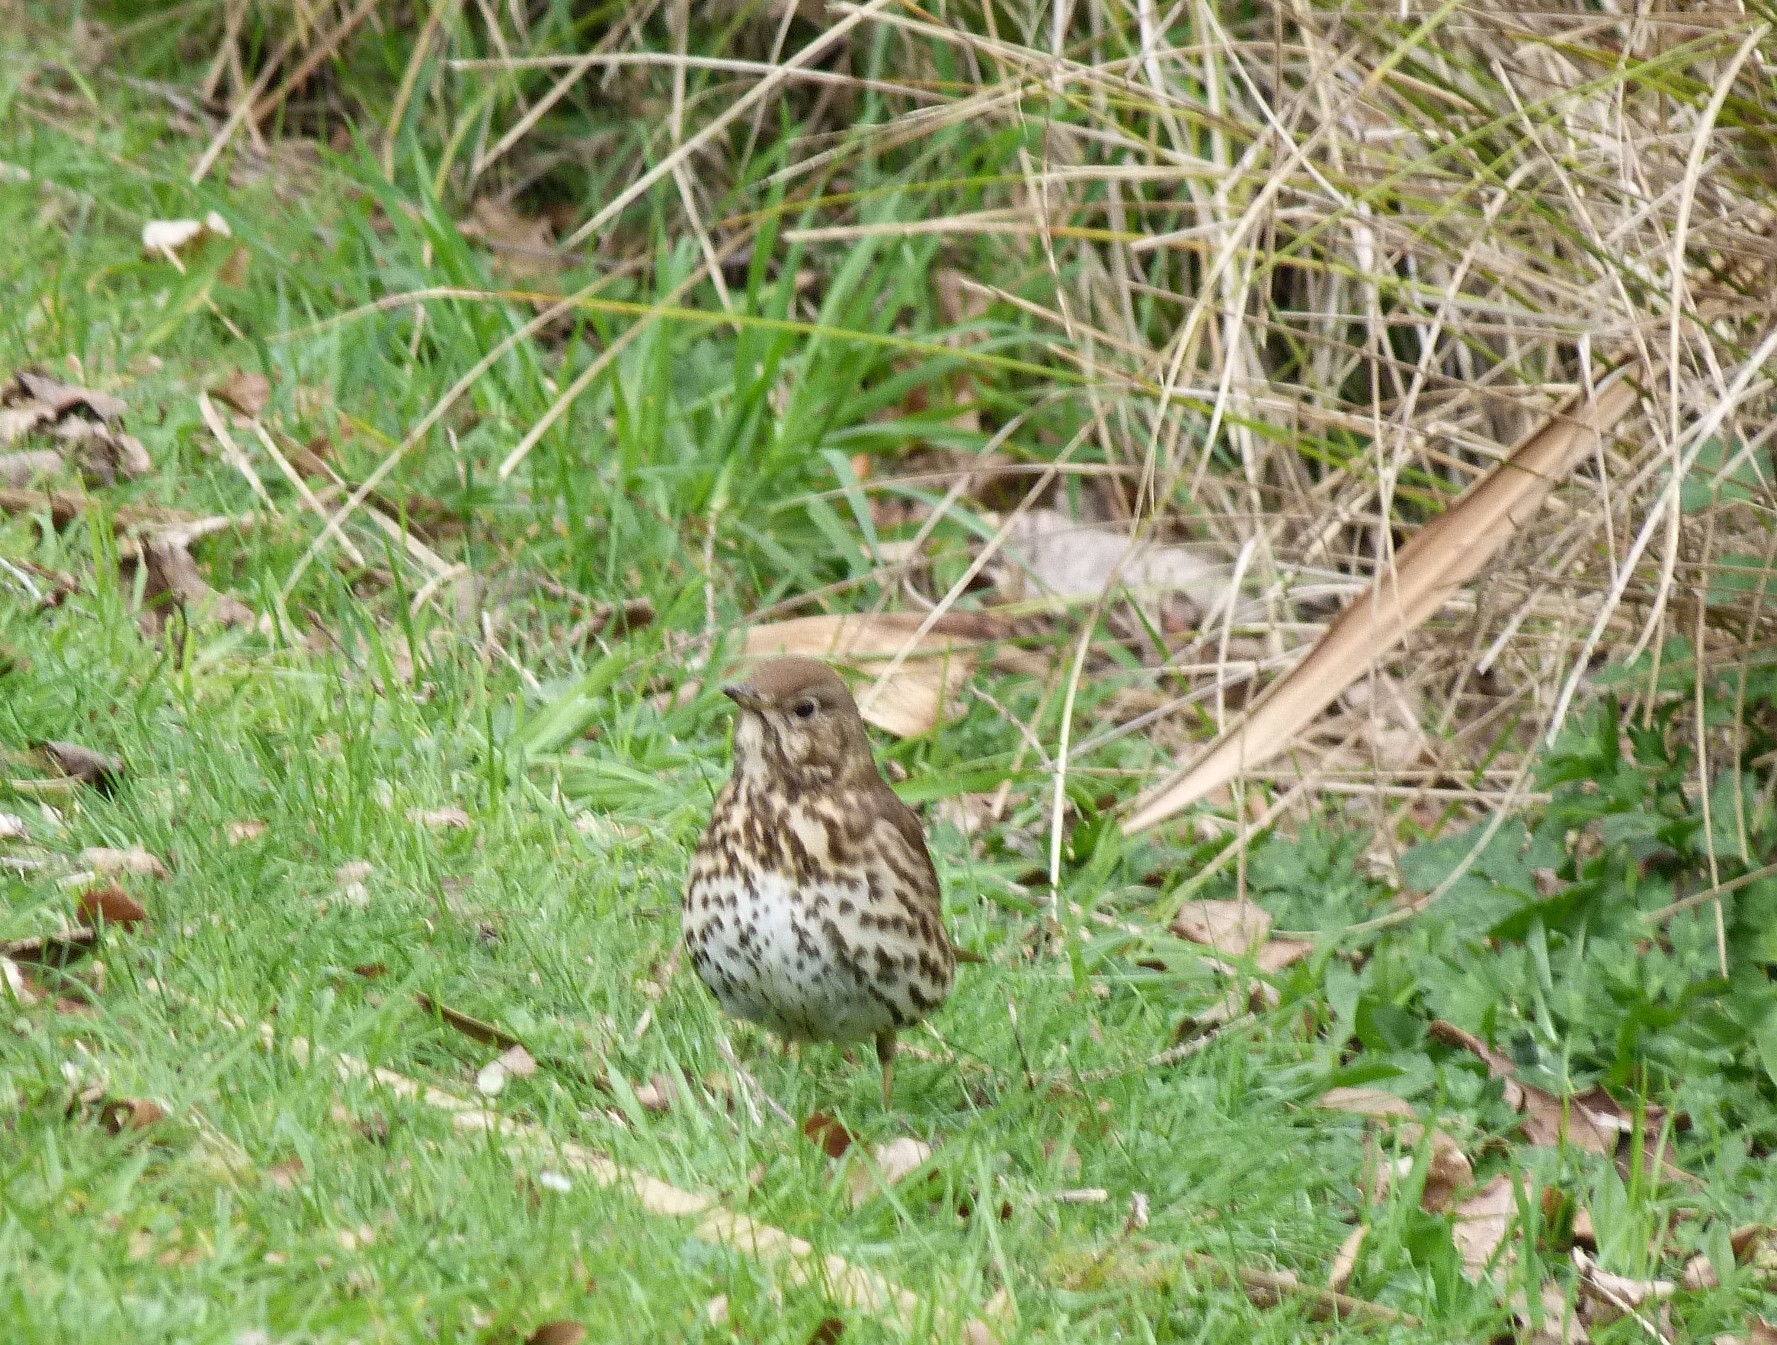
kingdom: Animalia
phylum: Chordata
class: Aves
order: Passeriformes
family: Turdidae
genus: Turdus
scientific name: Turdus philomelos
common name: Song thrush
